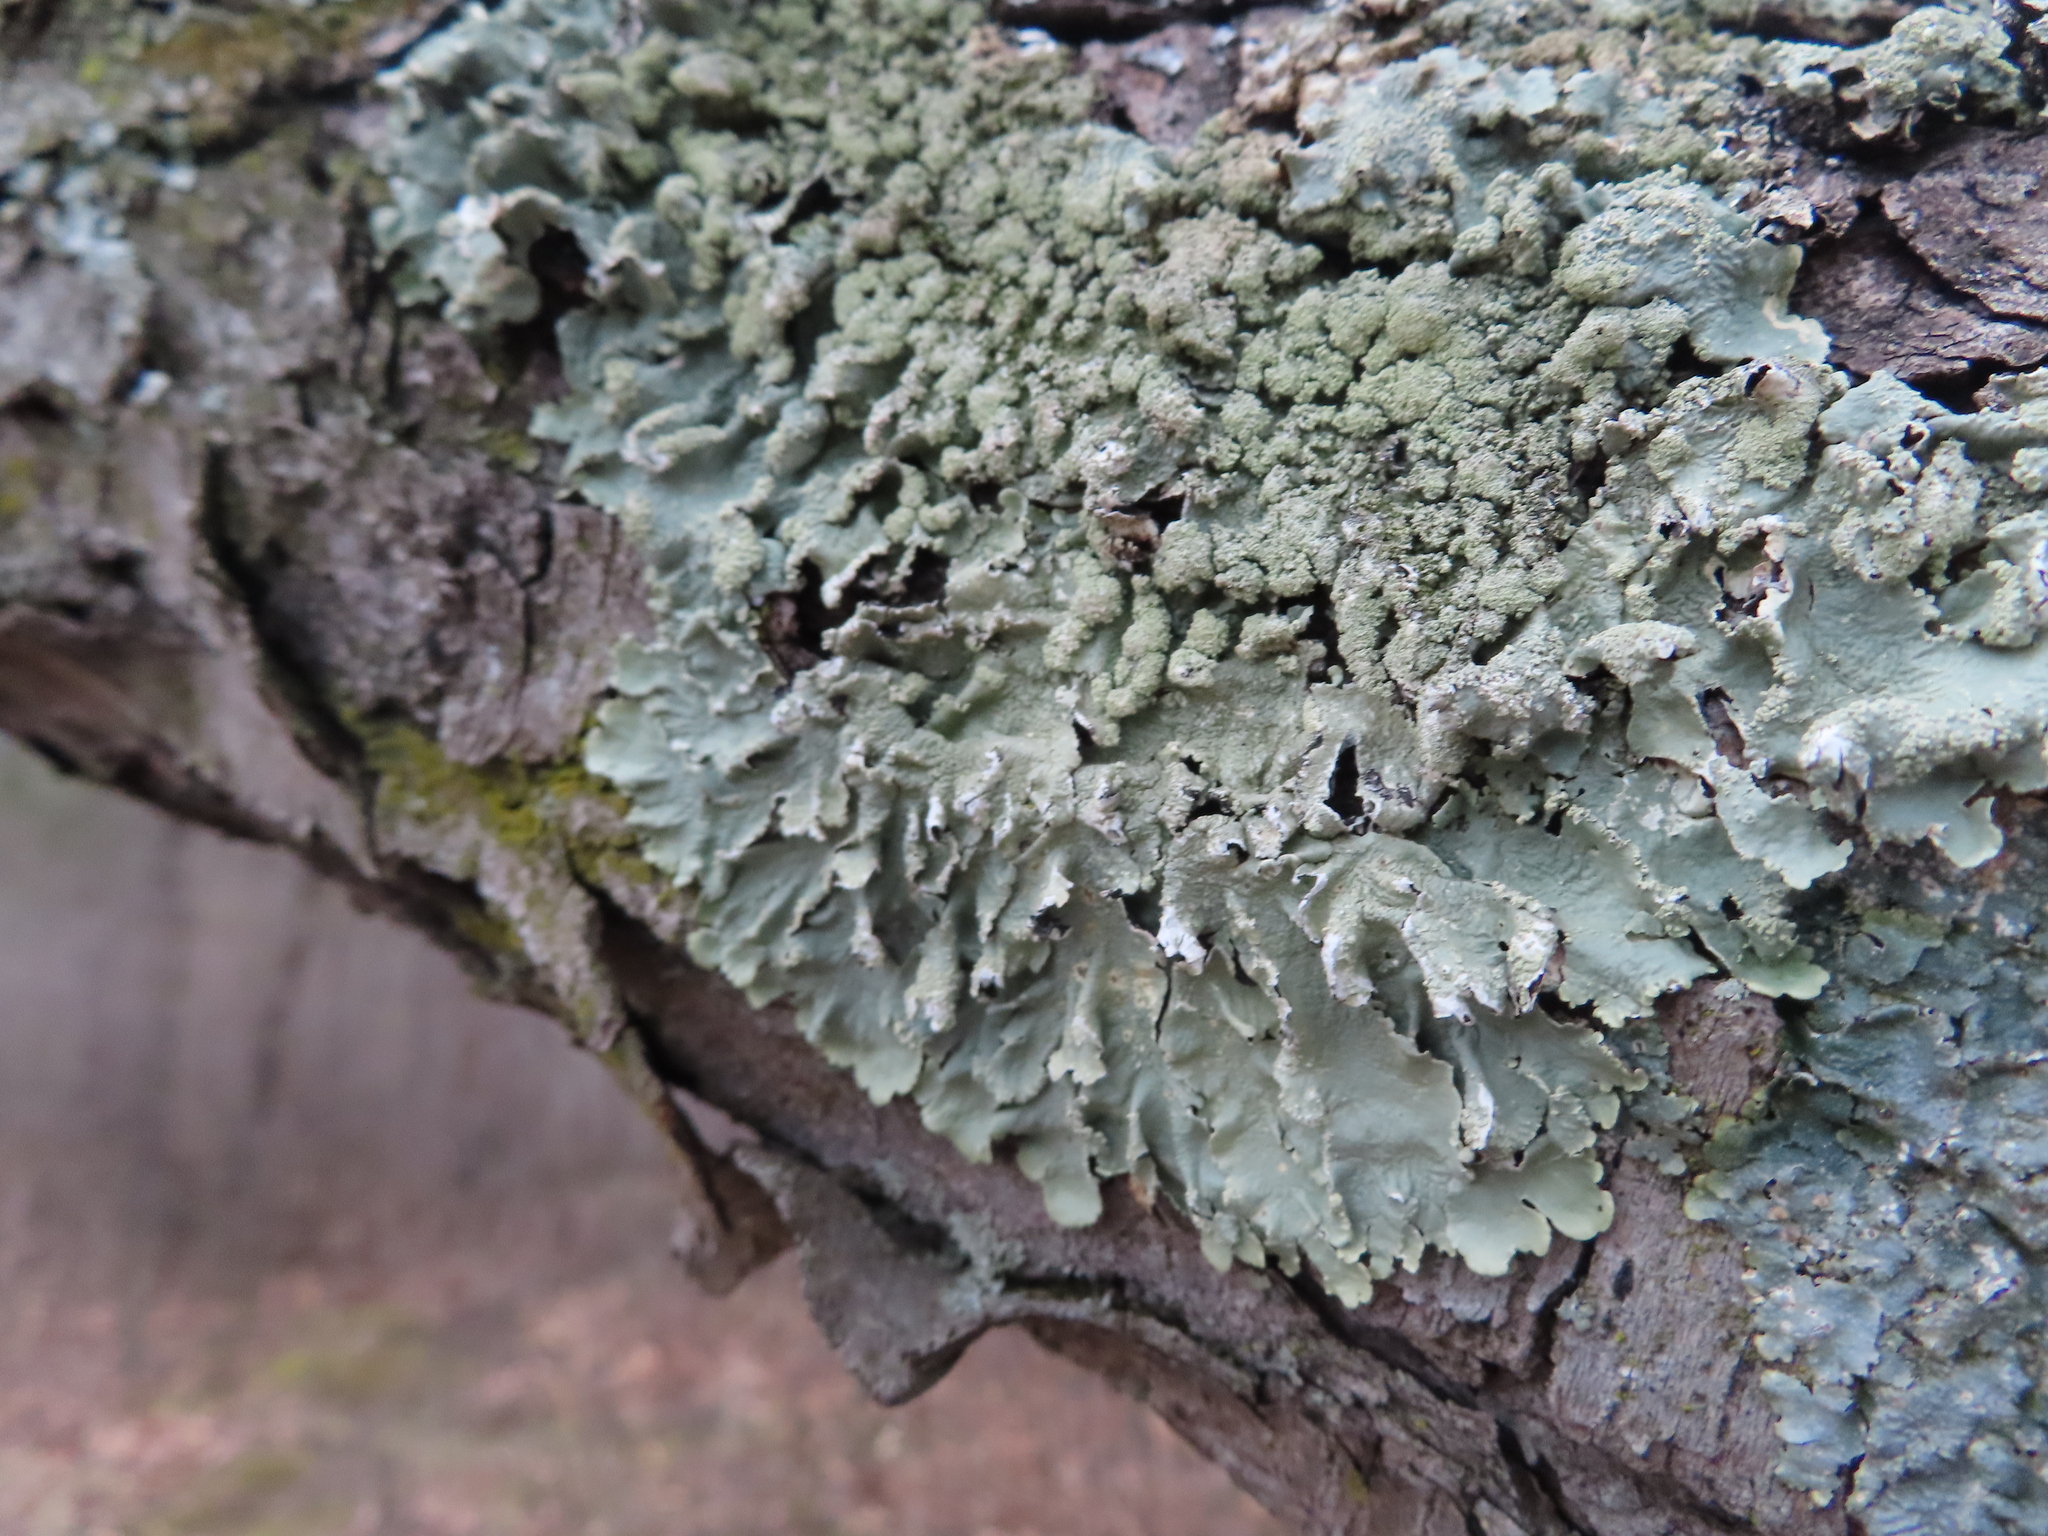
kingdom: Fungi
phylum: Ascomycota
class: Lecanoromycetes
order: Lecanorales
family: Parmeliaceae
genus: Flavoparmelia
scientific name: Flavoparmelia caperata
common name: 40-mile per hour lichen
